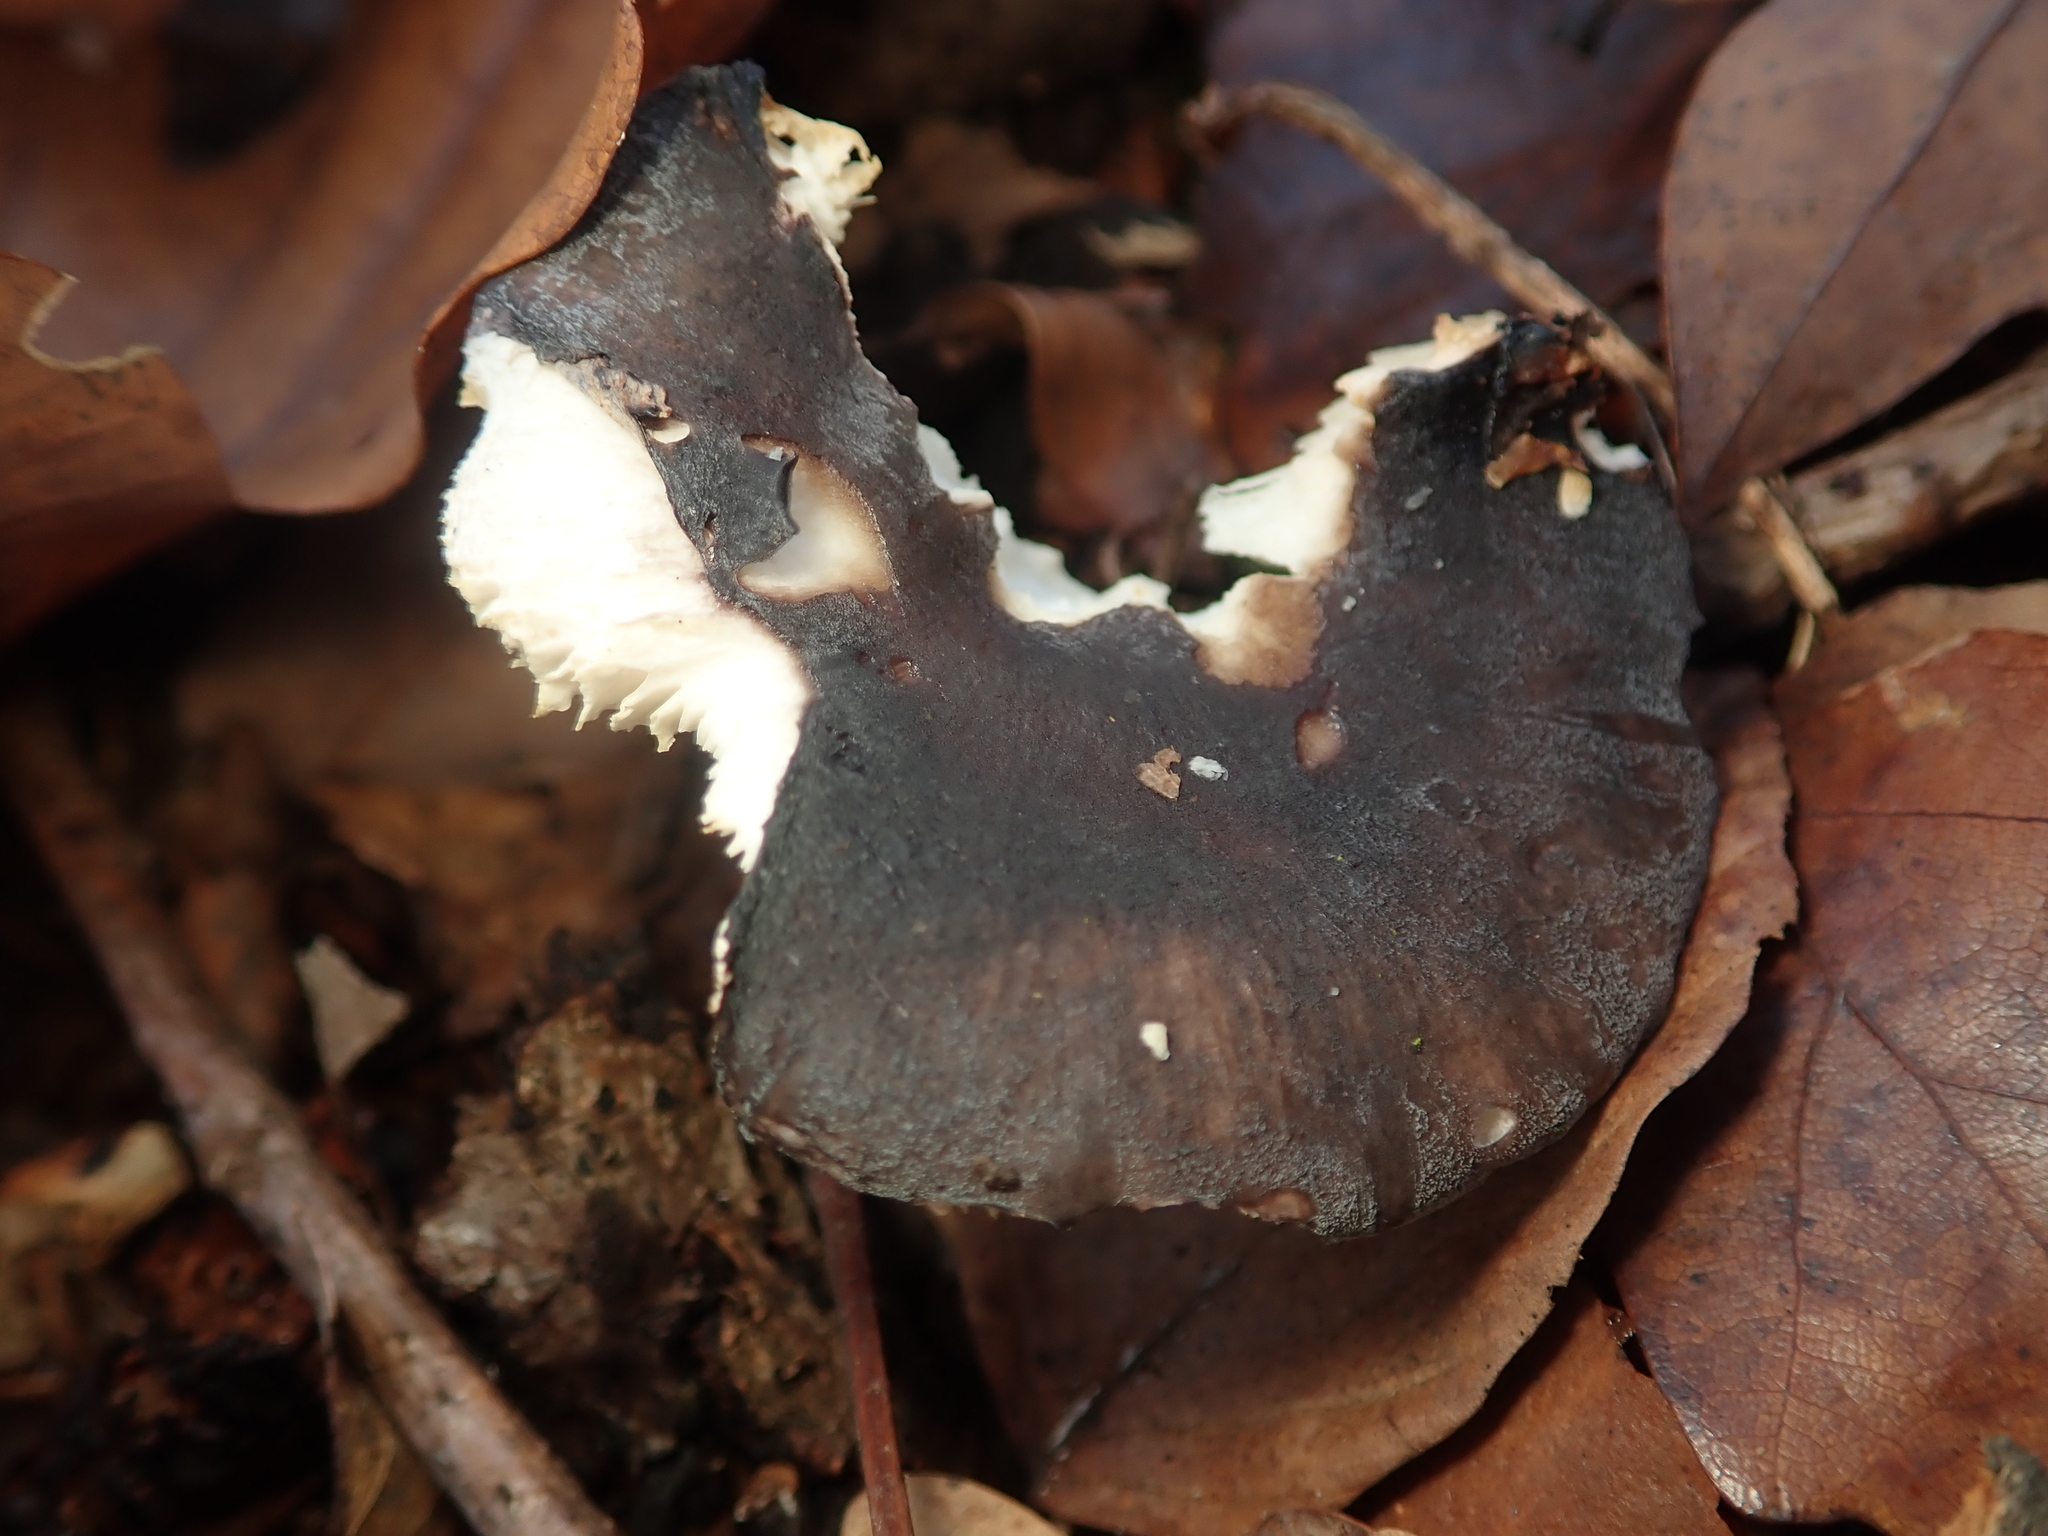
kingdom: Fungi
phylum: Basidiomycota
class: Agaricomycetes
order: Russulales
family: Russulaceae
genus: Russula
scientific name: Russula cyanoxantha
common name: Charcoal burner
